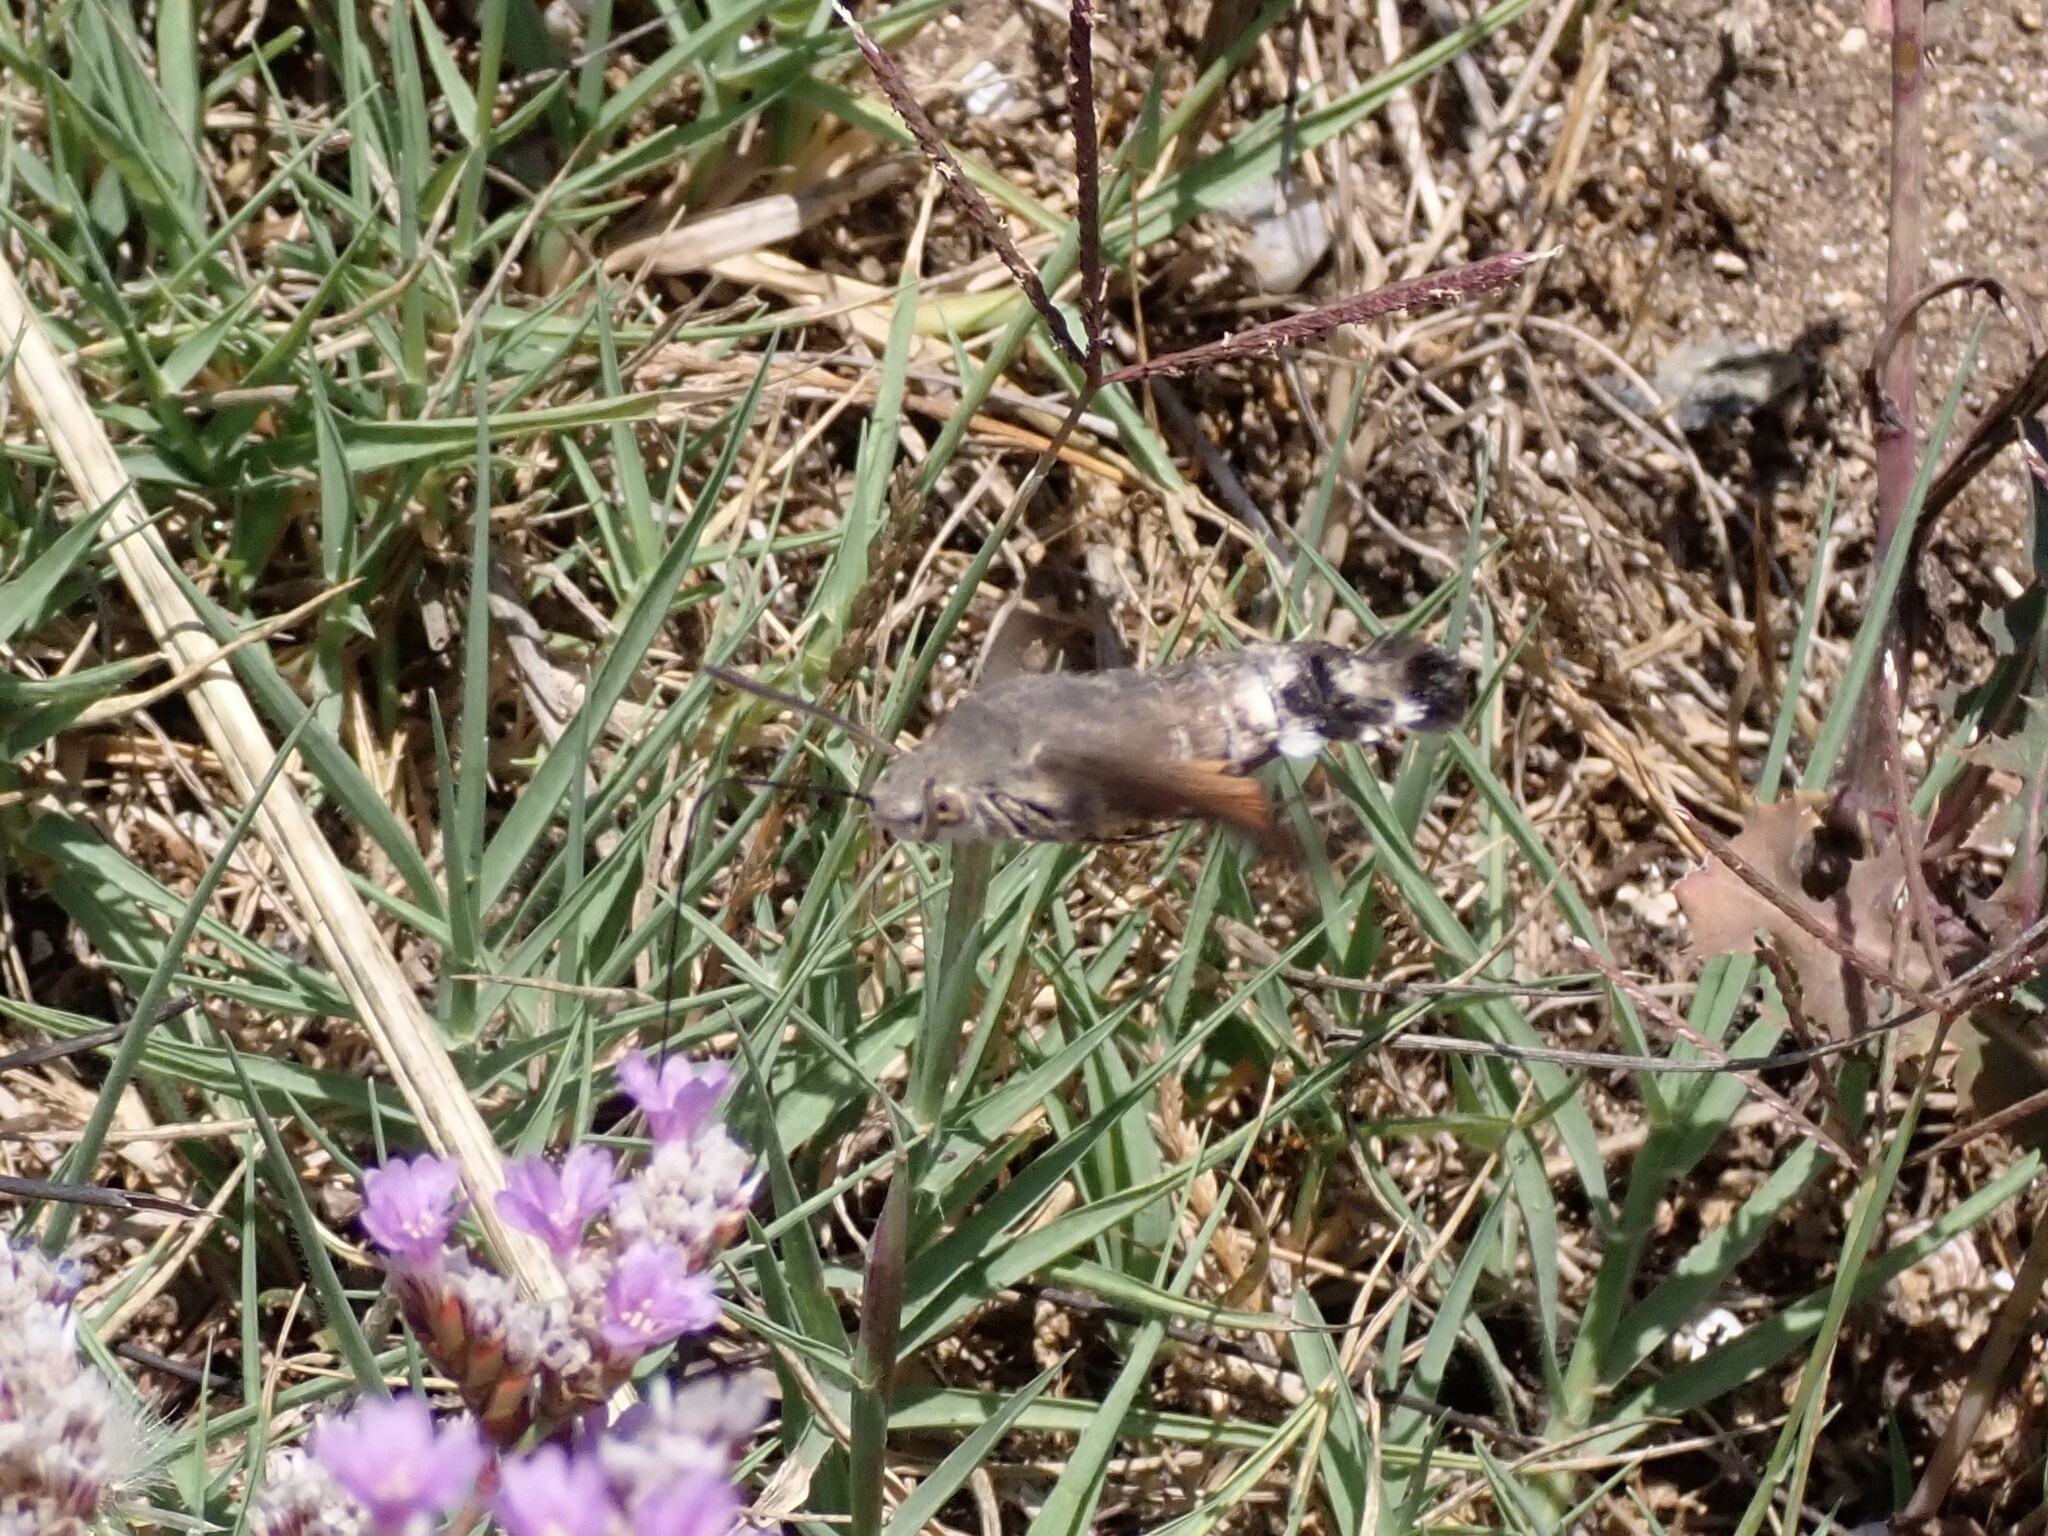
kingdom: Animalia
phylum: Arthropoda
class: Insecta
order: Lepidoptera
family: Sphingidae
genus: Macroglossum
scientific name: Macroglossum stellatarum
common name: Humming-bird hawk-moth
